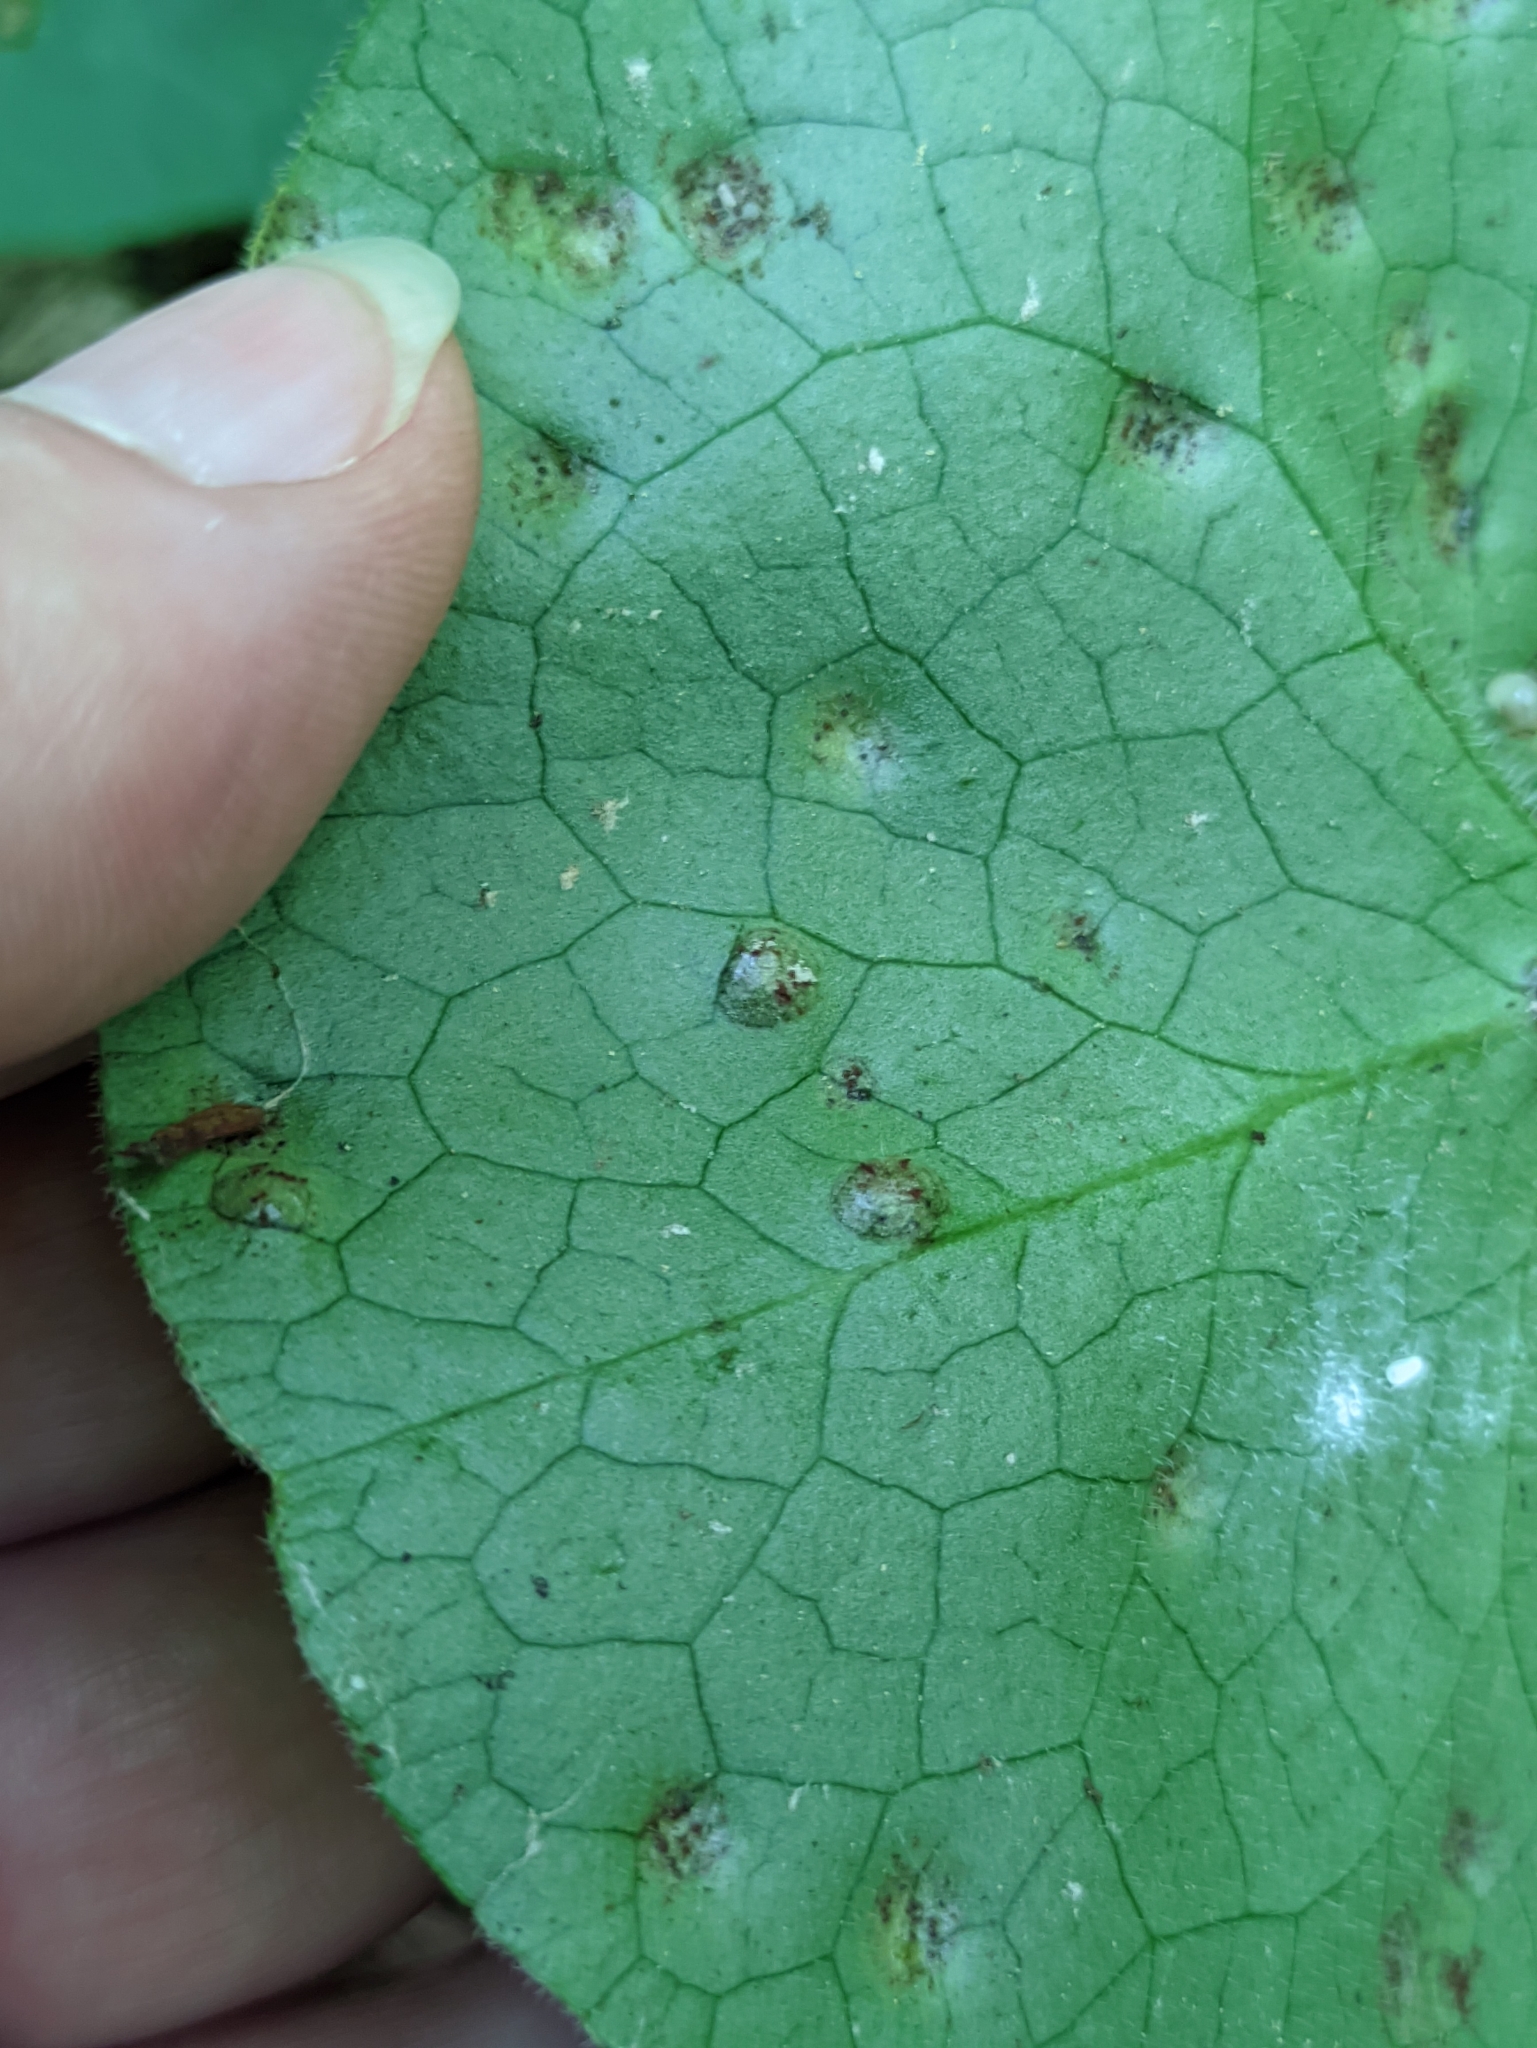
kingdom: Fungi
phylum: Basidiomycota
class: Pucciniomycetes
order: Pucciniales
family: Pucciniaceae
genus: Puccinia
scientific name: Puccinia asarina
